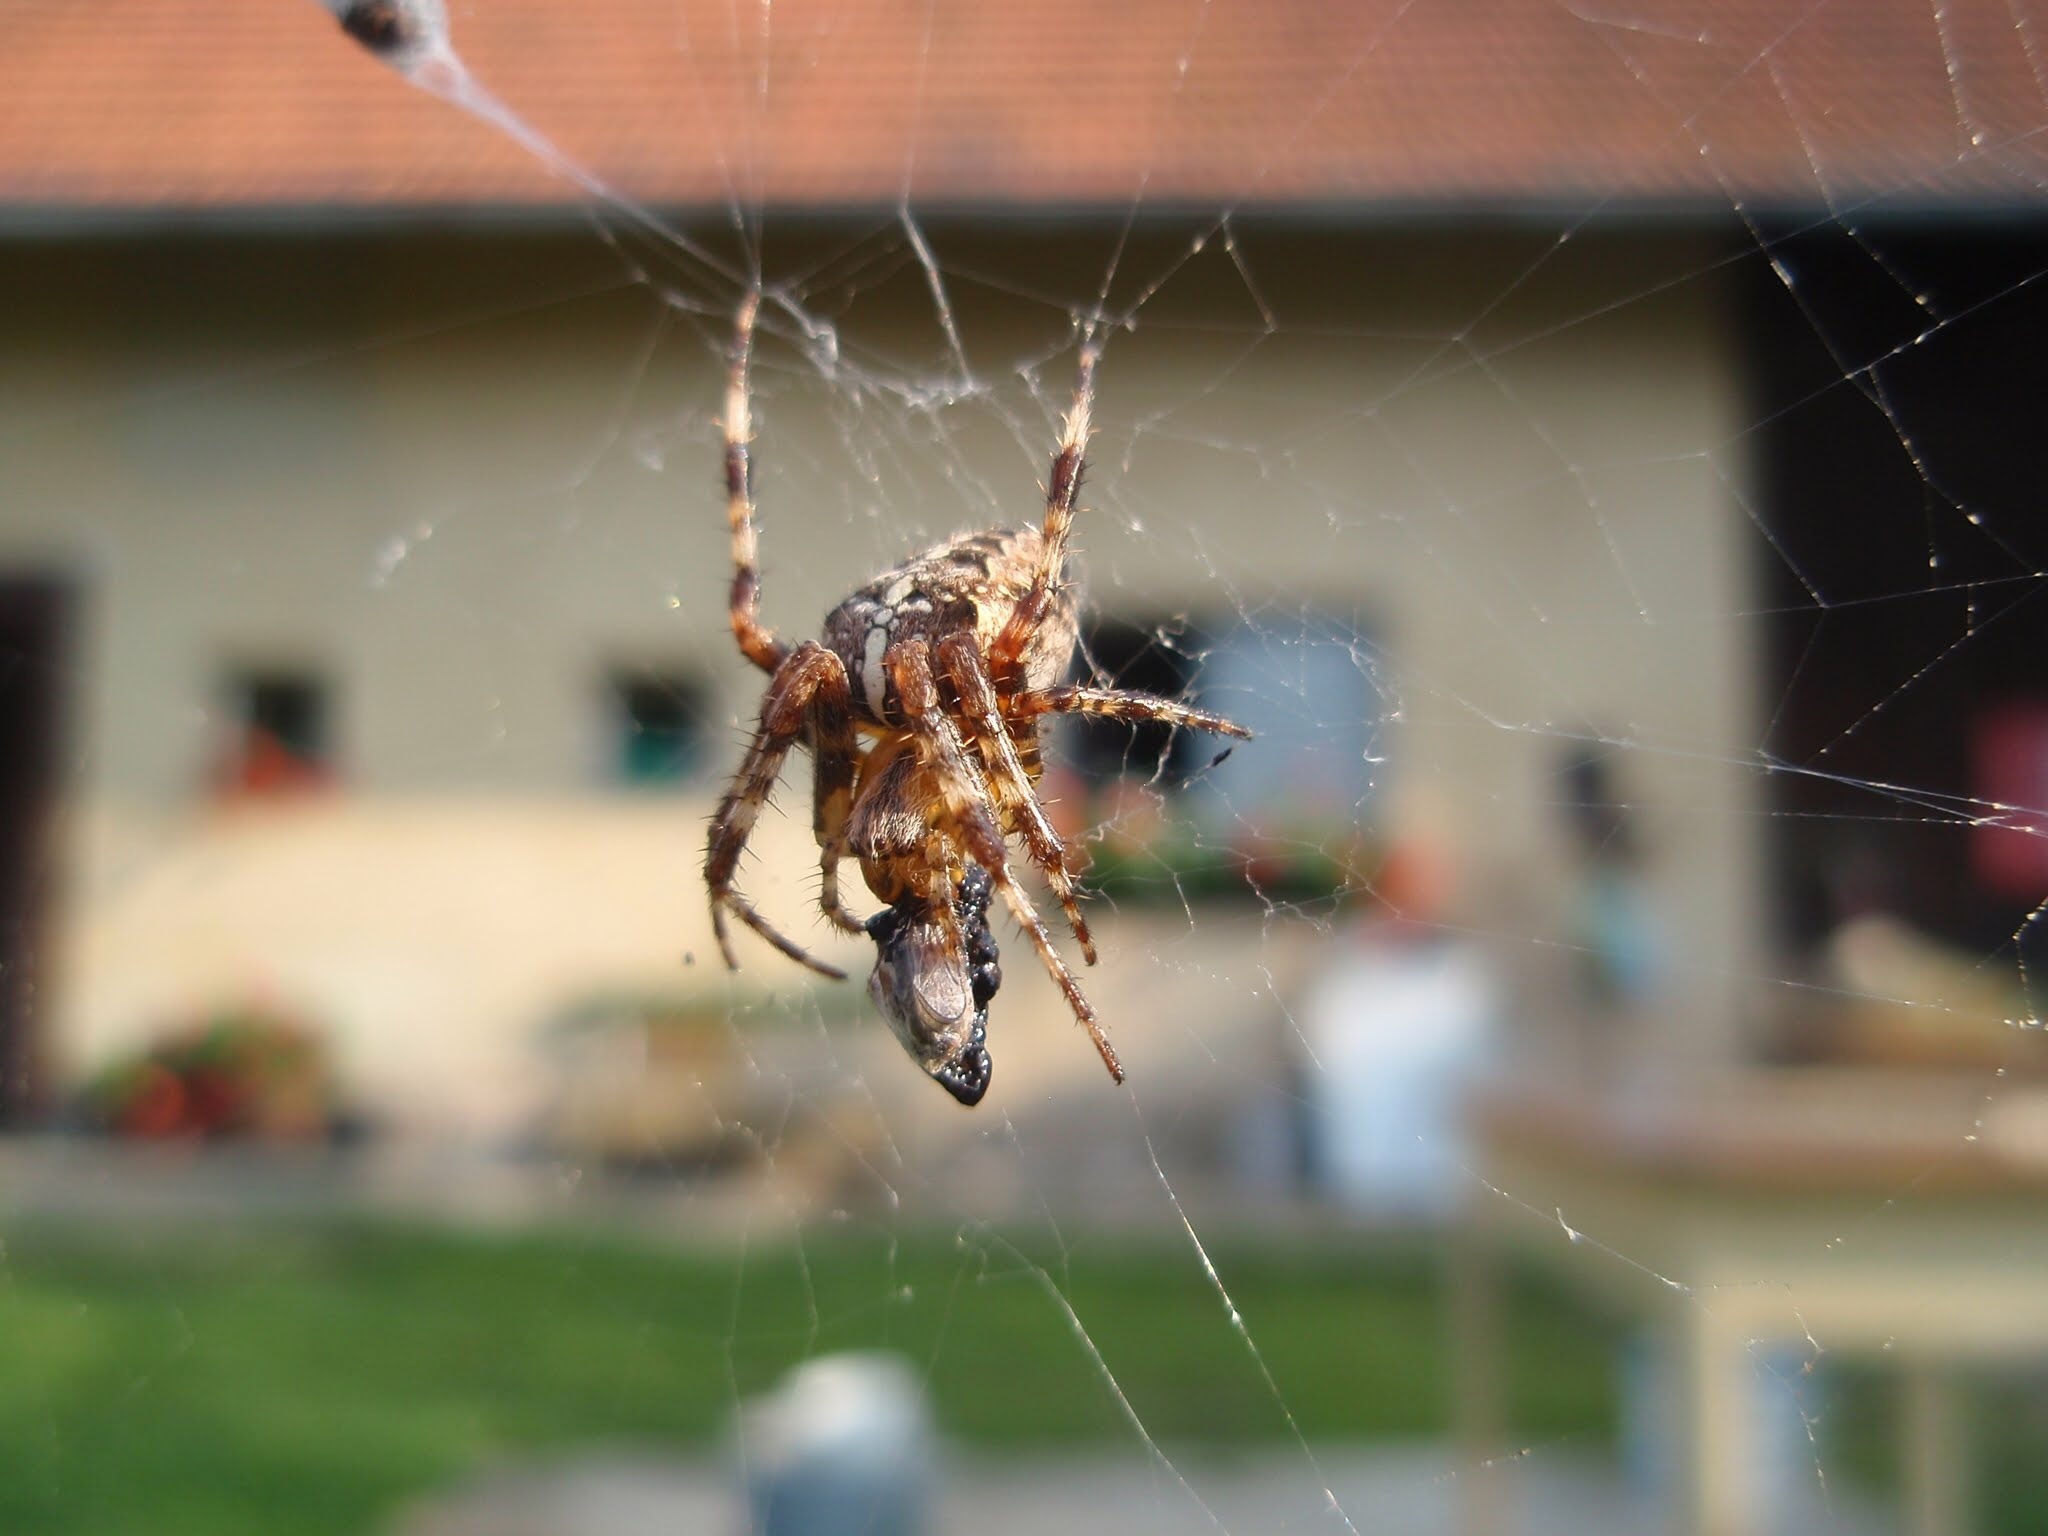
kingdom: Animalia
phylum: Arthropoda
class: Arachnida
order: Araneae
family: Araneidae
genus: Araneus
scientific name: Araneus diadematus
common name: Cross orbweaver
